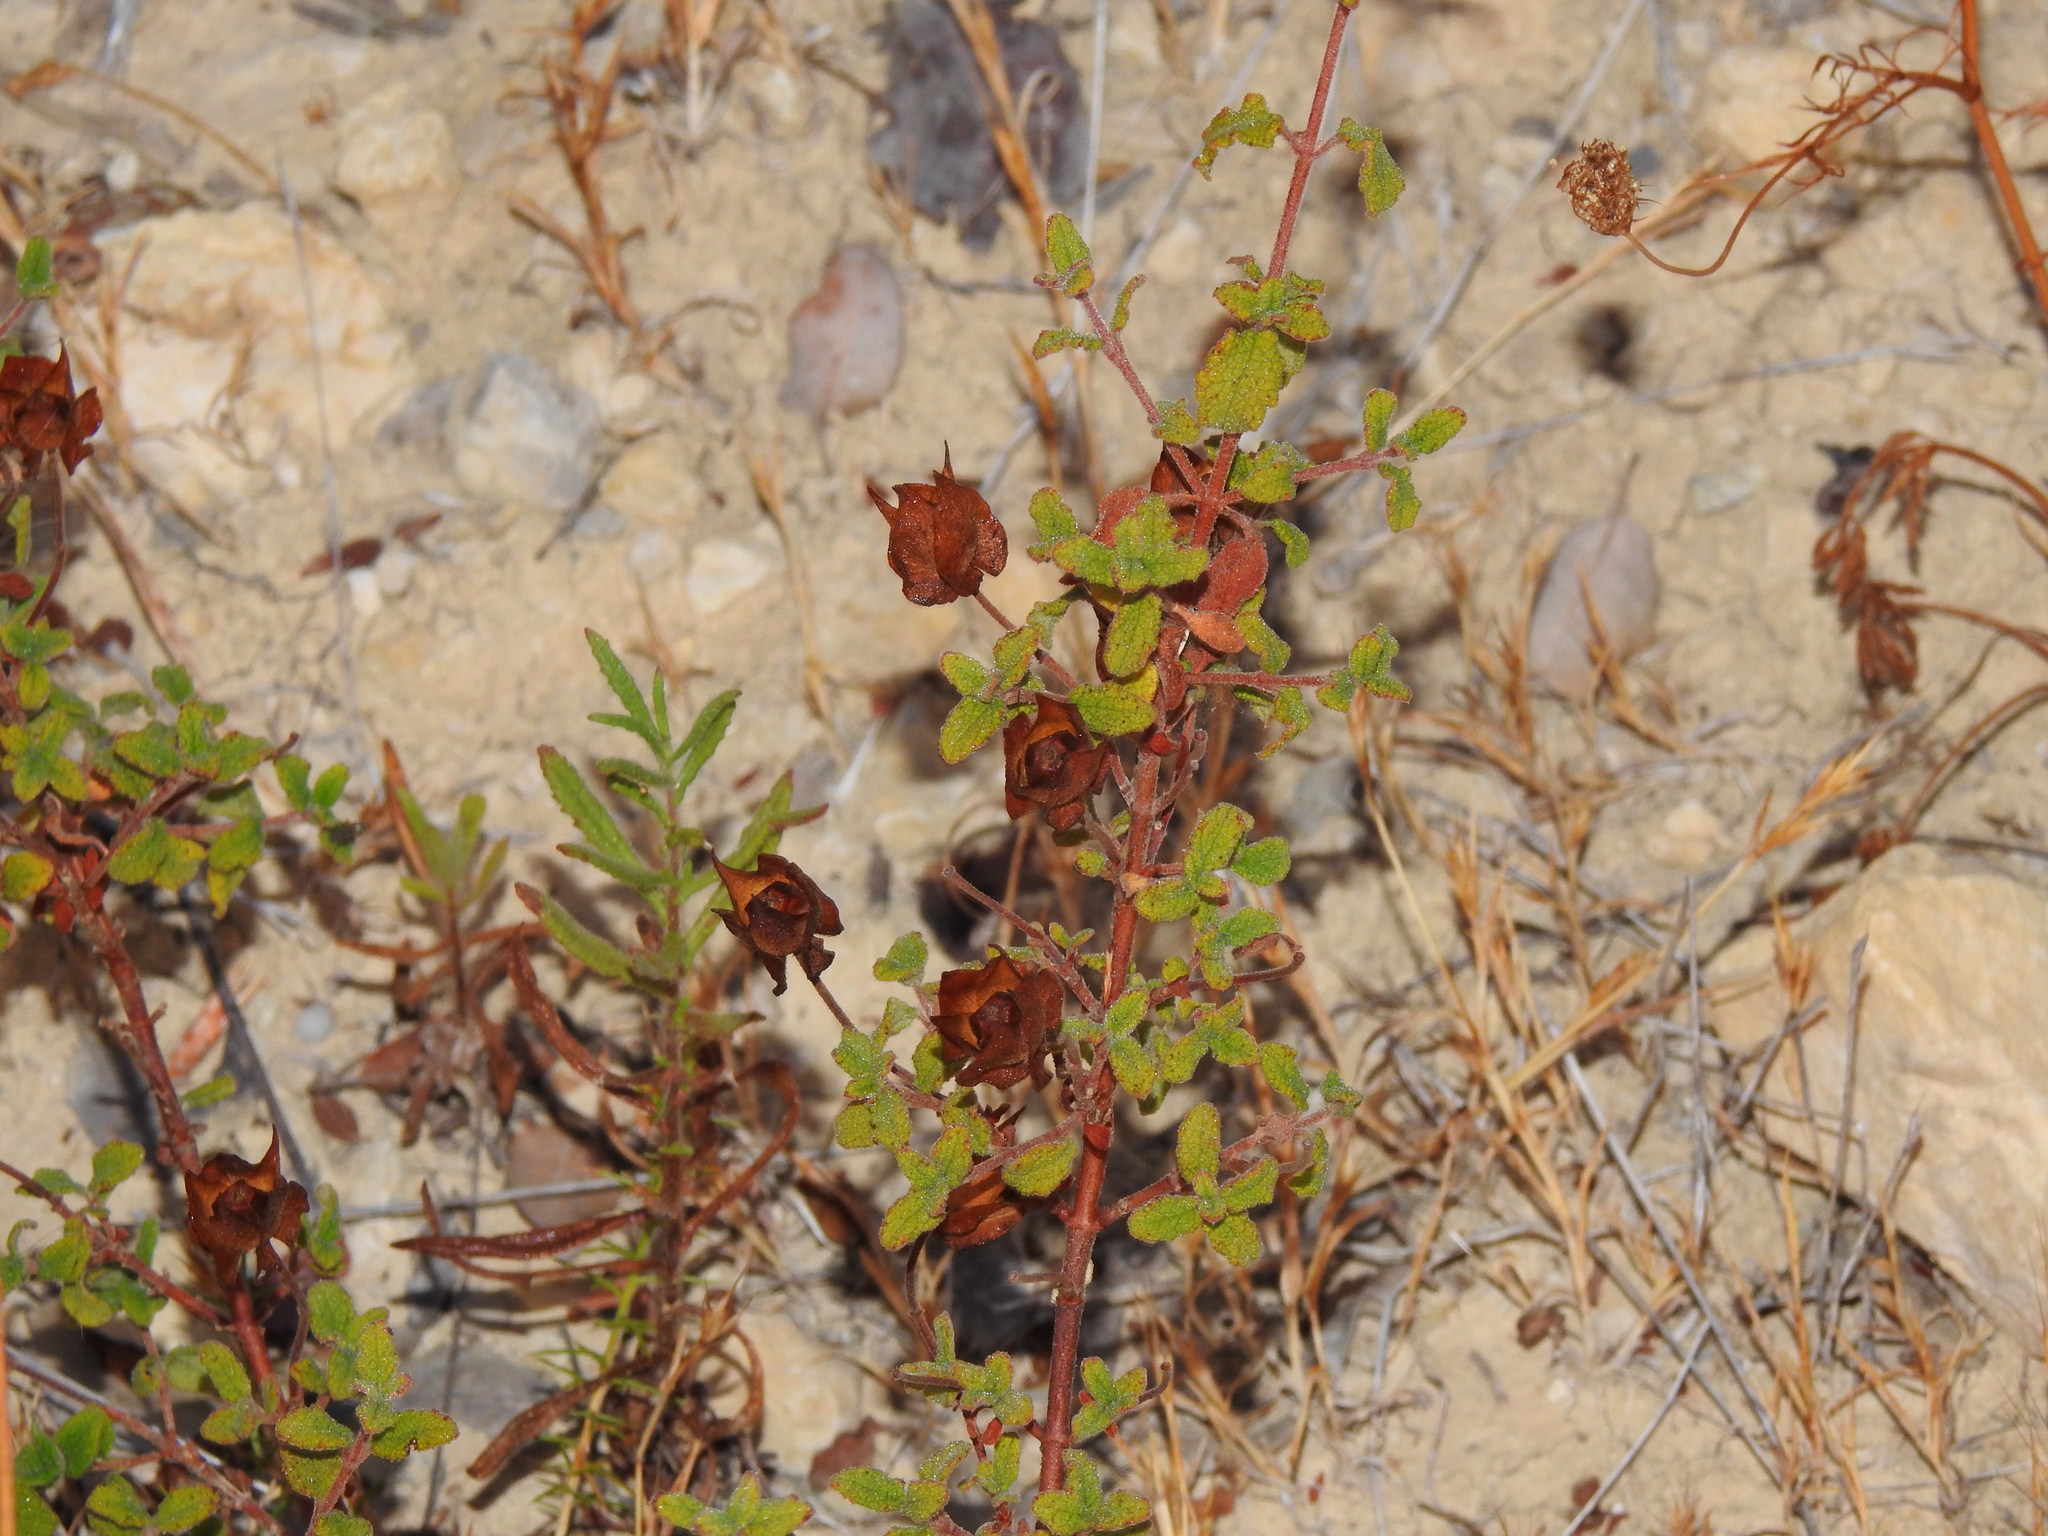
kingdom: Plantae
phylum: Tracheophyta
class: Magnoliopsida
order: Malvales
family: Cistaceae
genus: Cistus
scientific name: Cistus salviifolius
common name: Salvia cistus
